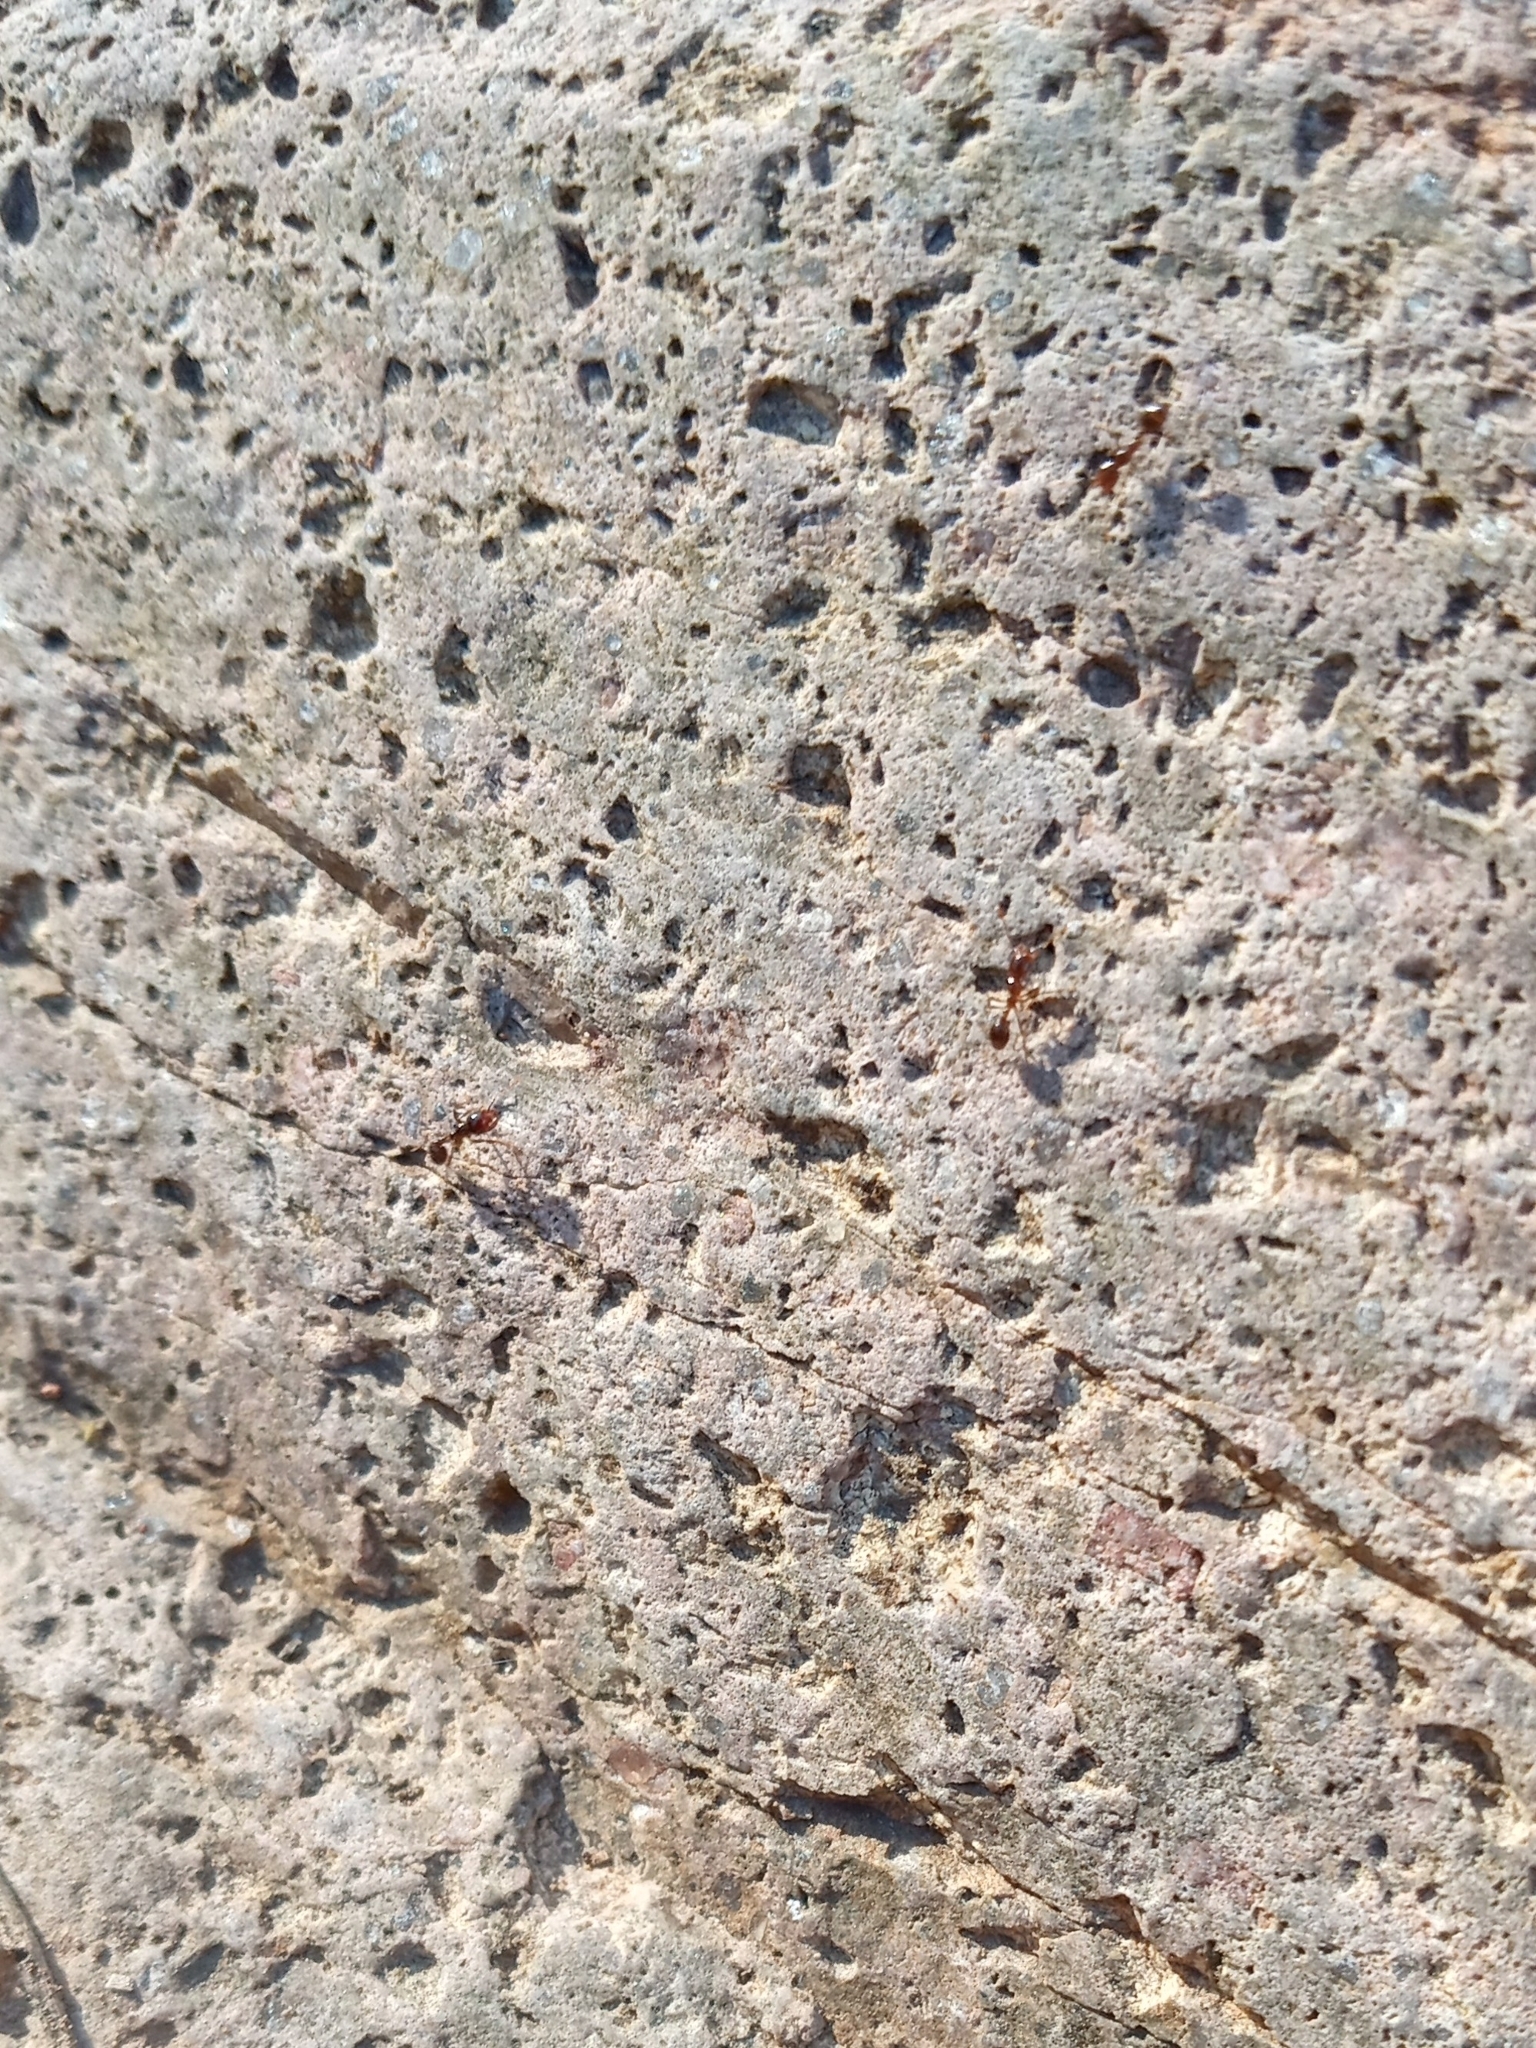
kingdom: Animalia
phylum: Arthropoda
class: Insecta
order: Hymenoptera
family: Formicidae
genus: Solenopsis
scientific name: Solenopsis xyloni
